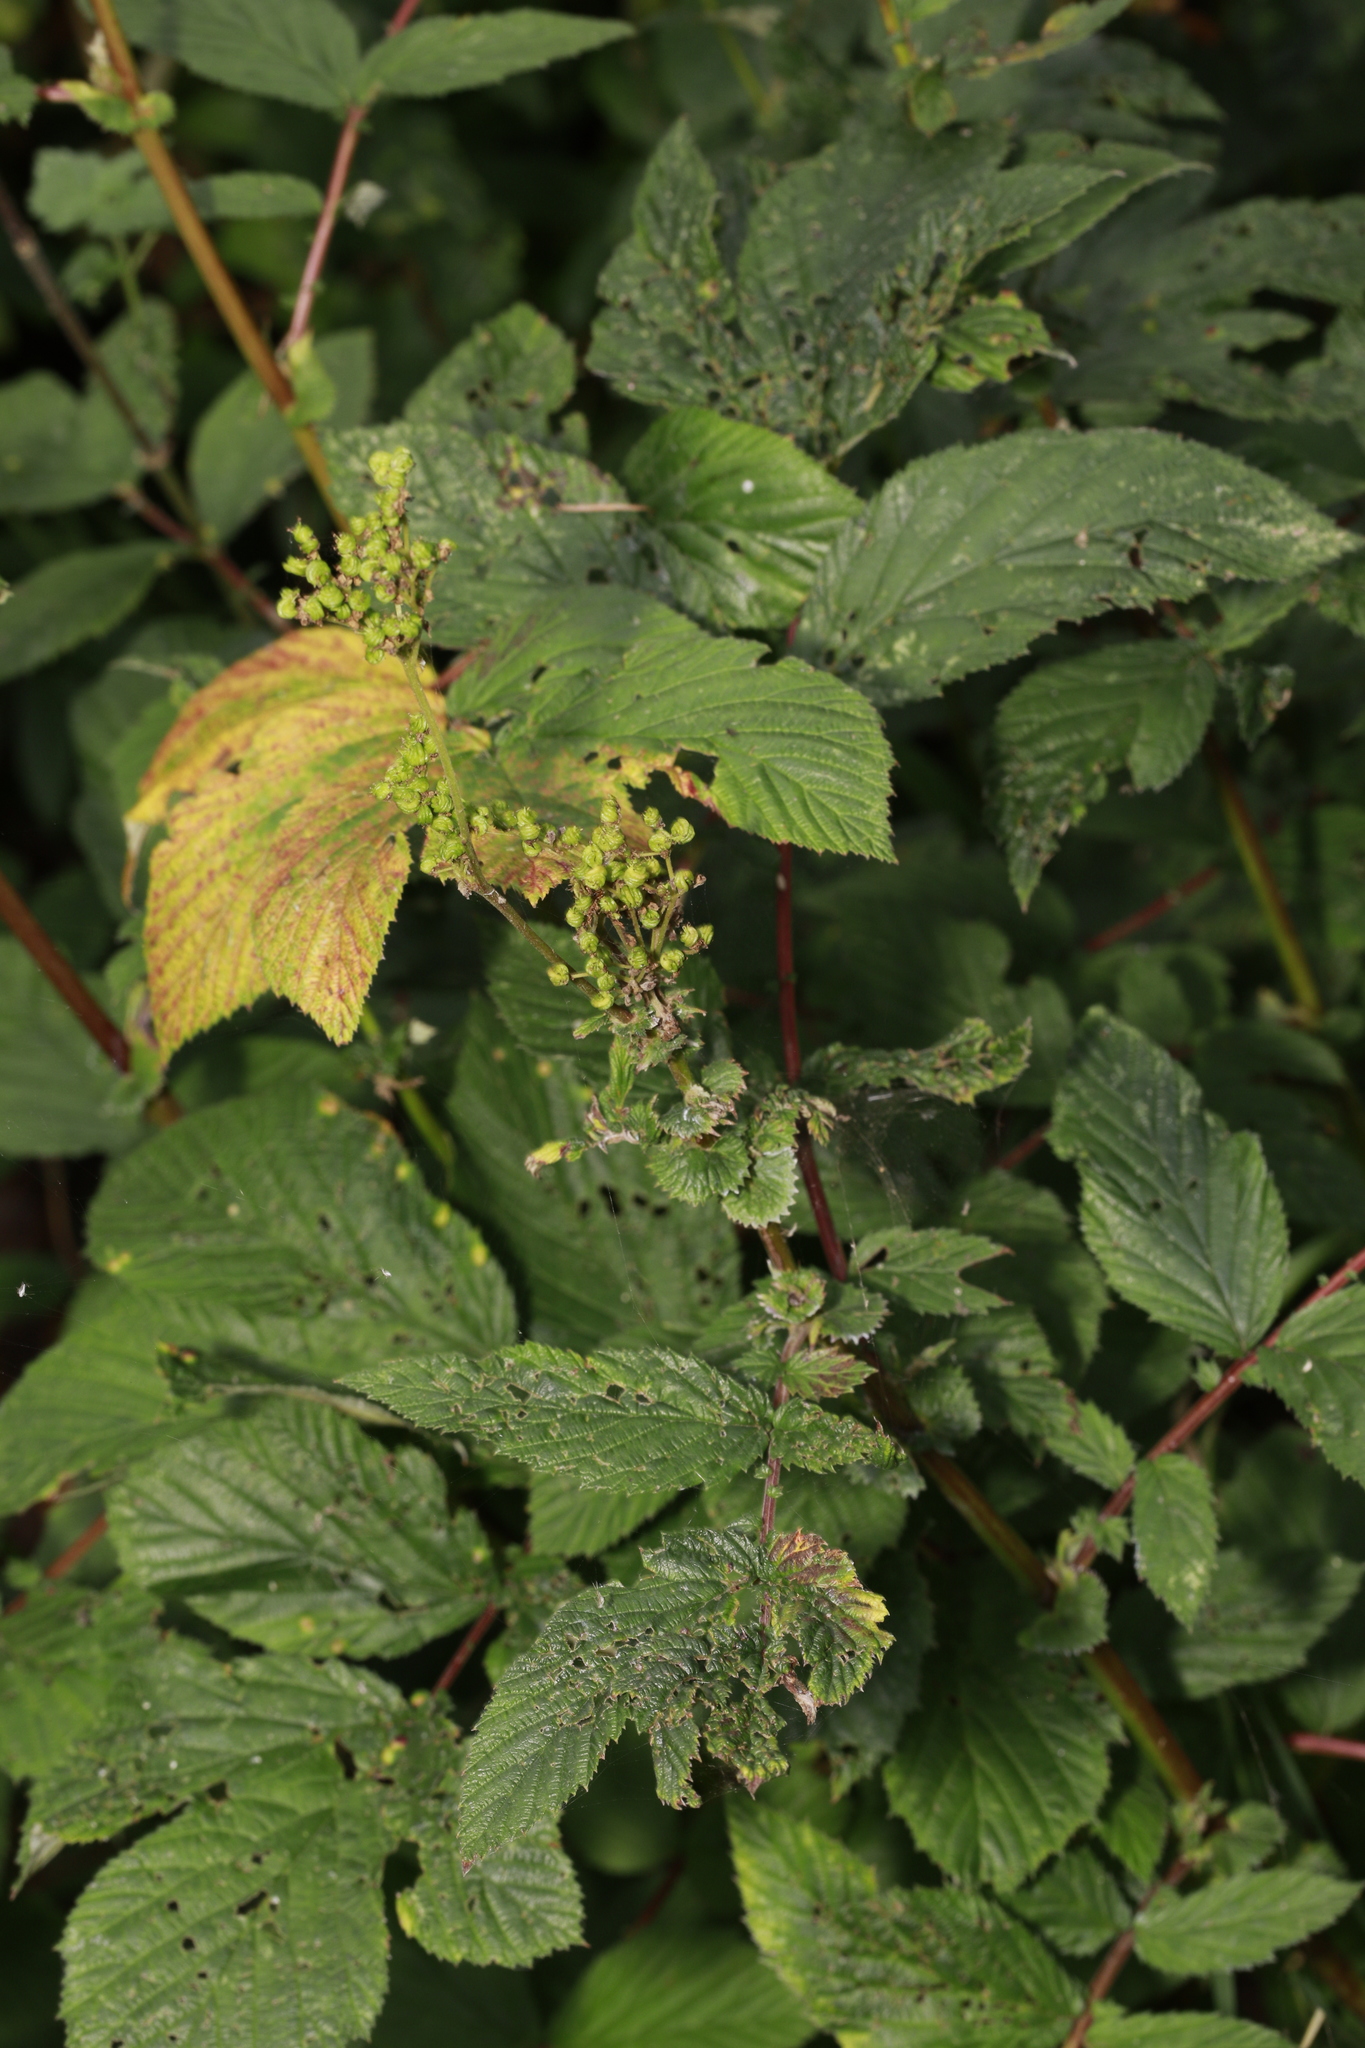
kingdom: Plantae
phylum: Tracheophyta
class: Magnoliopsida
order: Rosales
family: Rosaceae
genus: Filipendula
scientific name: Filipendula ulmaria
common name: Meadowsweet
